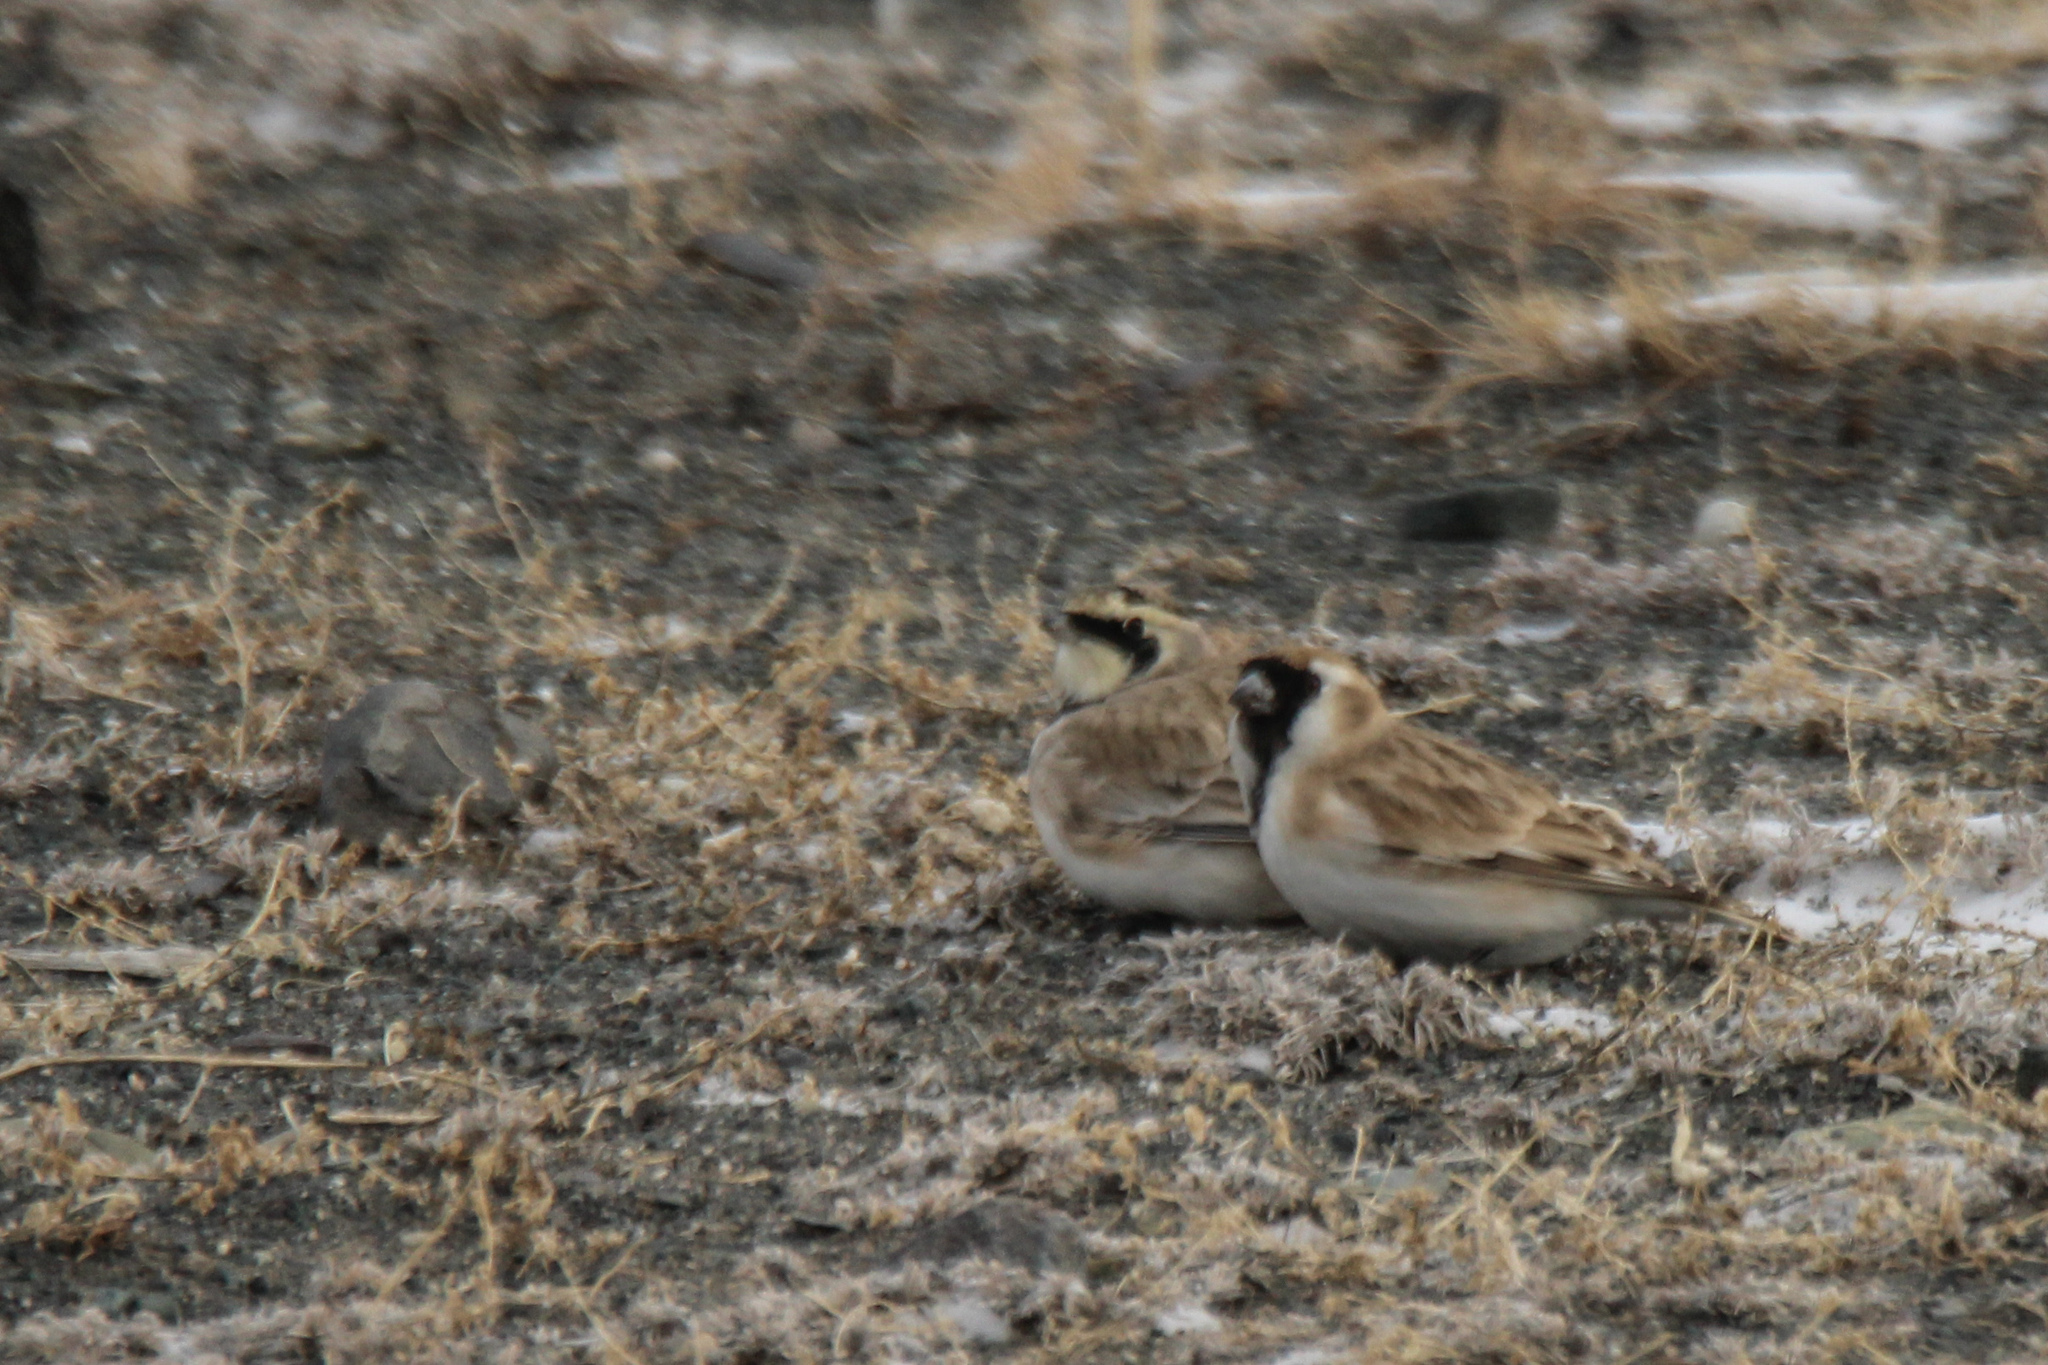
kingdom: Animalia
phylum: Chordata
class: Aves
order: Passeriformes
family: Passeridae
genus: Pyrgilauda
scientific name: Pyrgilauda davidiana
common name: Pere david's snowfinch
